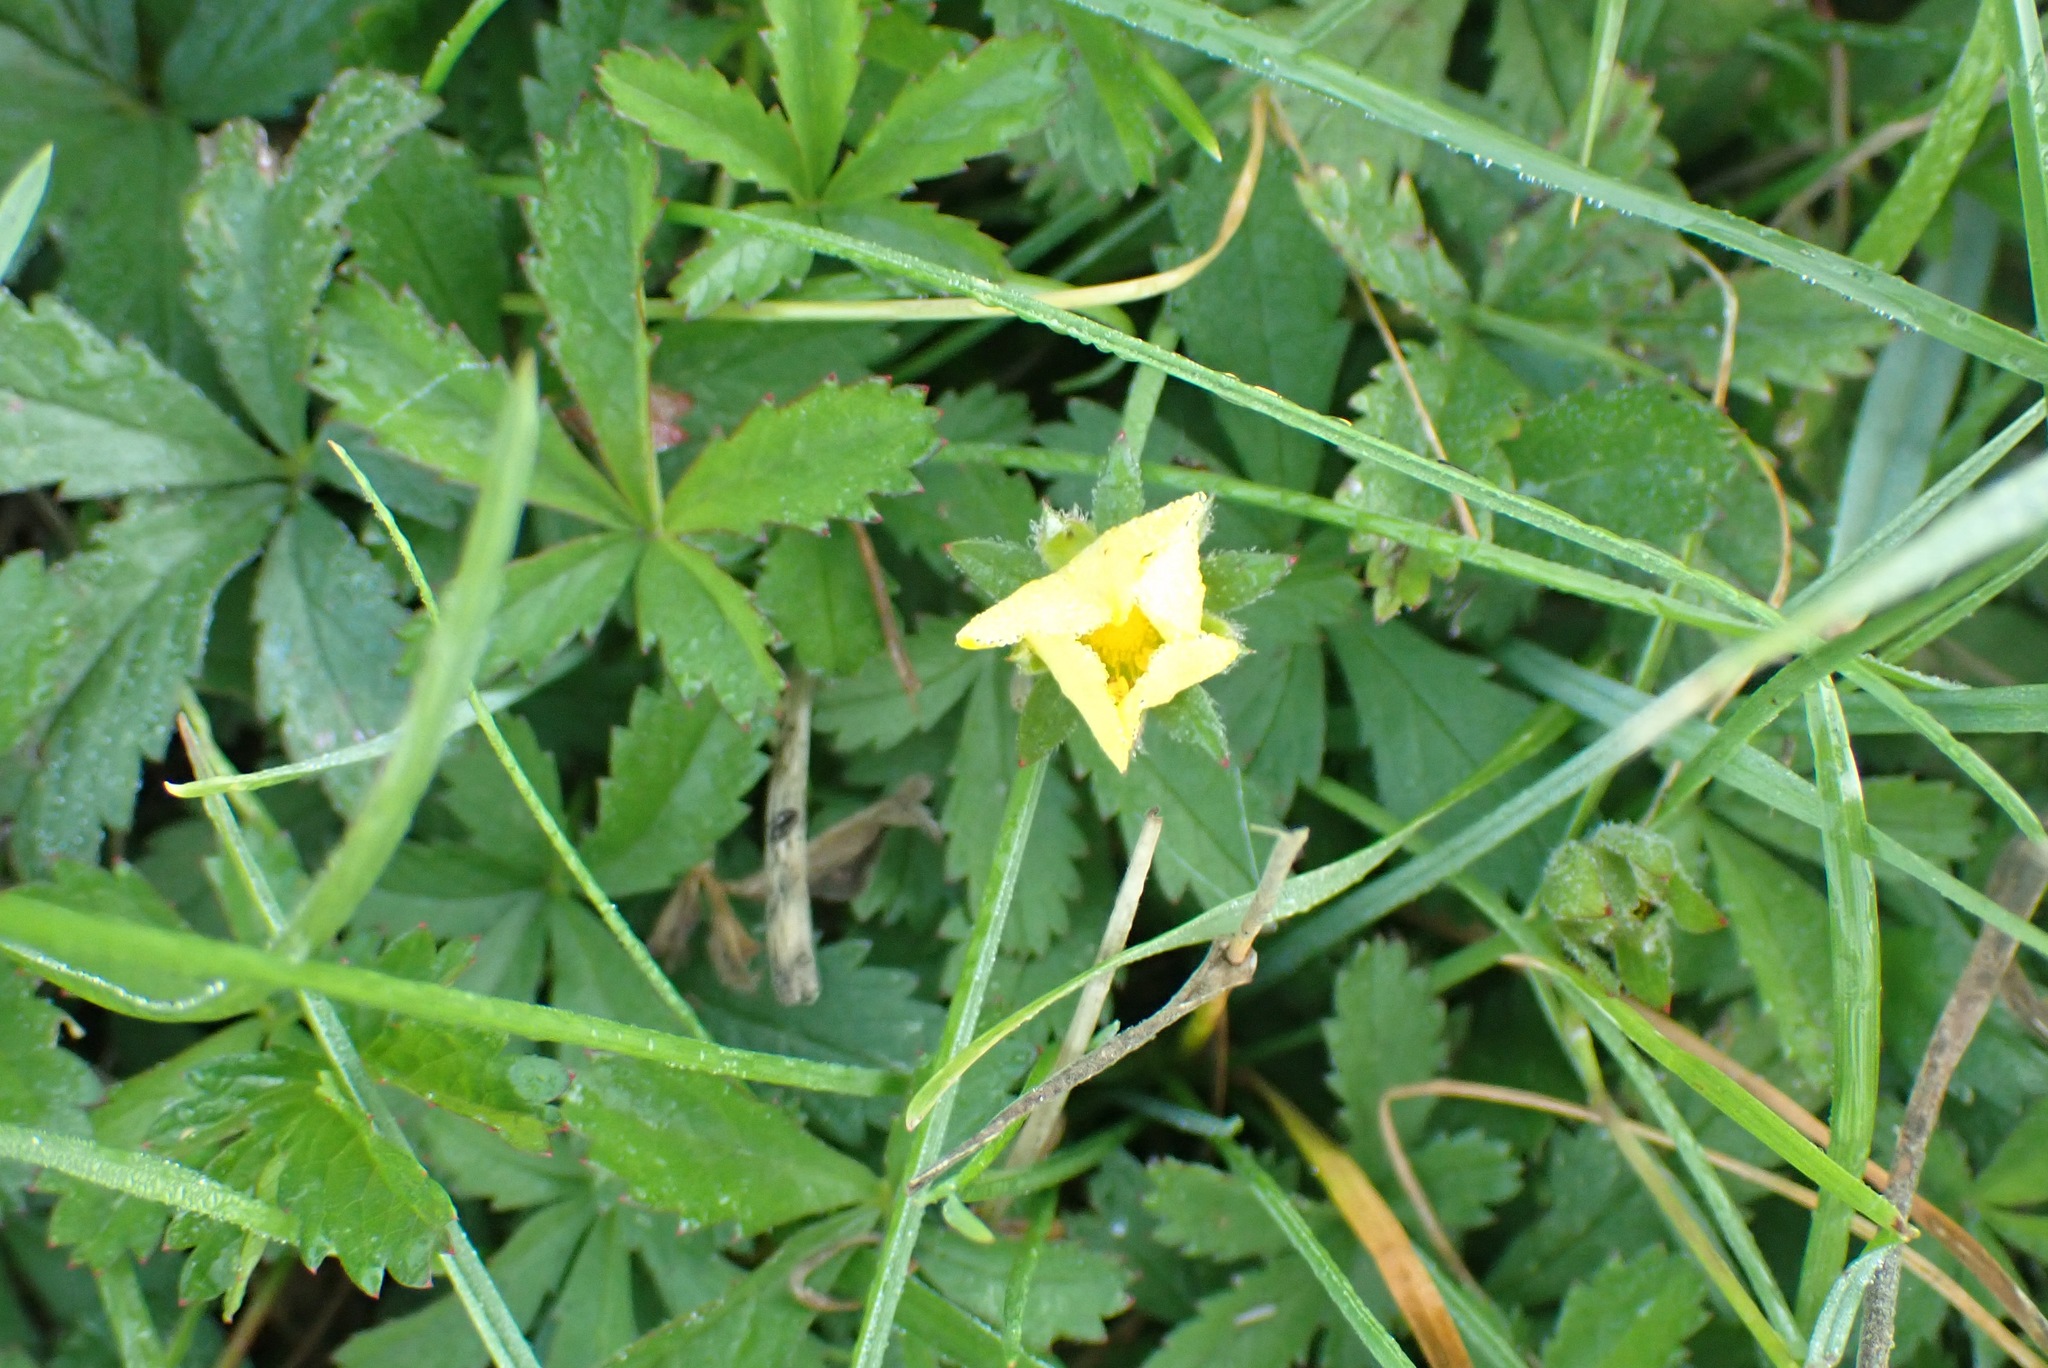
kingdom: Plantae
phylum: Tracheophyta
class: Magnoliopsida
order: Rosales
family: Rosaceae
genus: Potentilla
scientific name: Potentilla reptans
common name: Creeping cinquefoil
